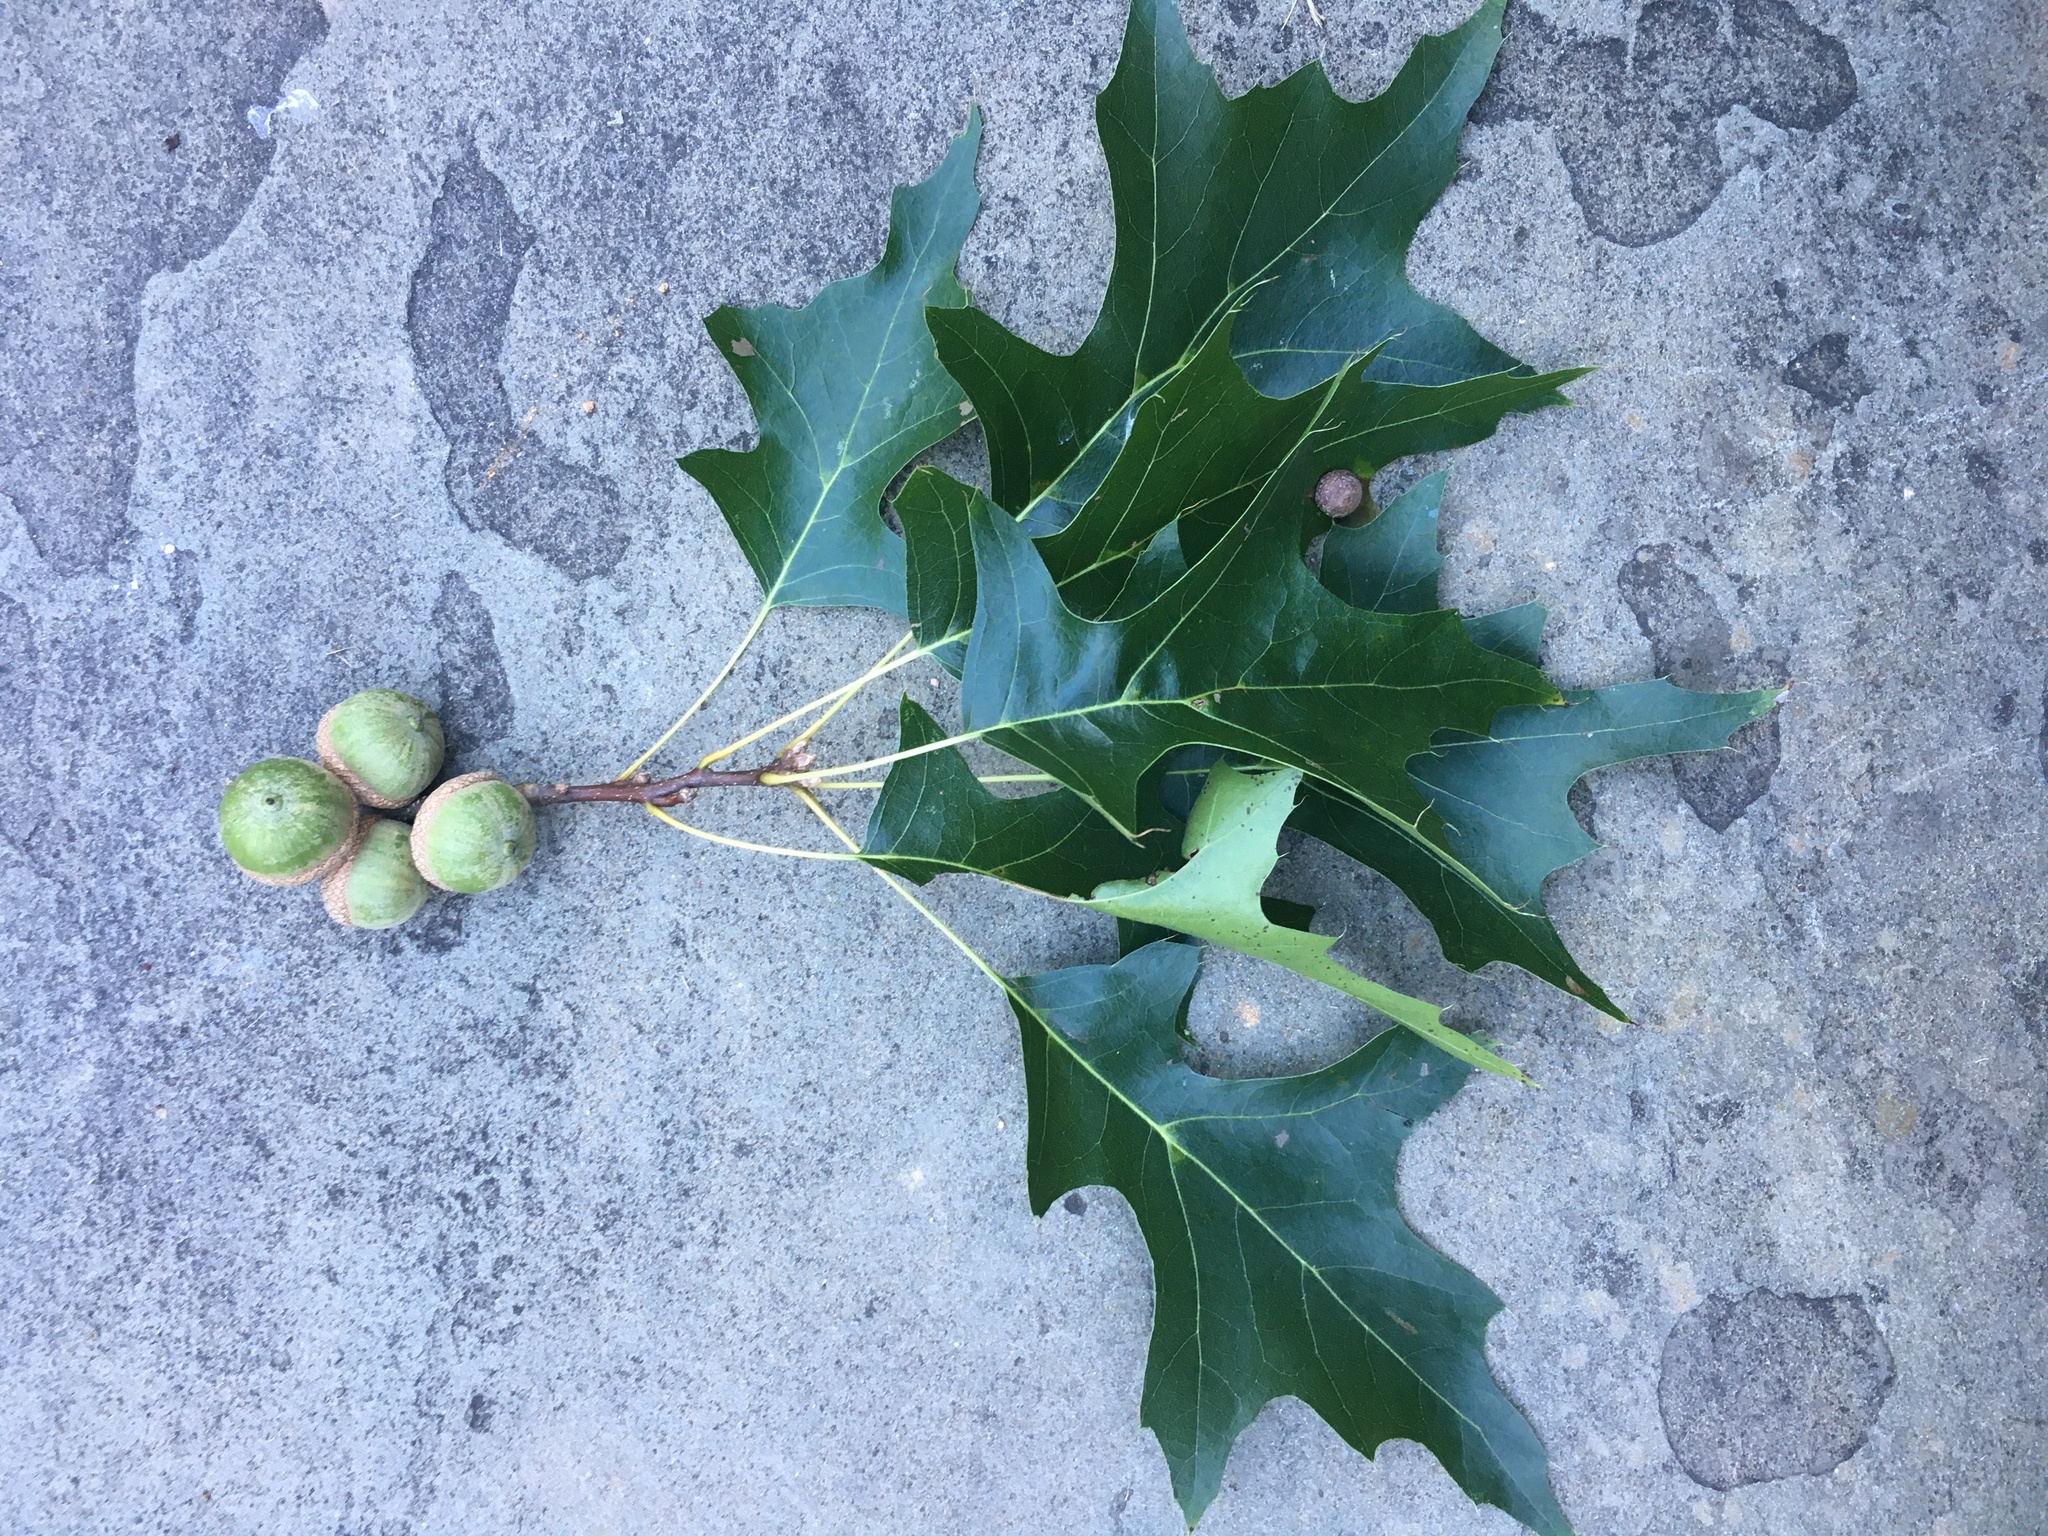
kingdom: Plantae
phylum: Tracheophyta
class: Magnoliopsida
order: Fagales
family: Fagaceae
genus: Quercus
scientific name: Quercus palustris
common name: Pin oak
